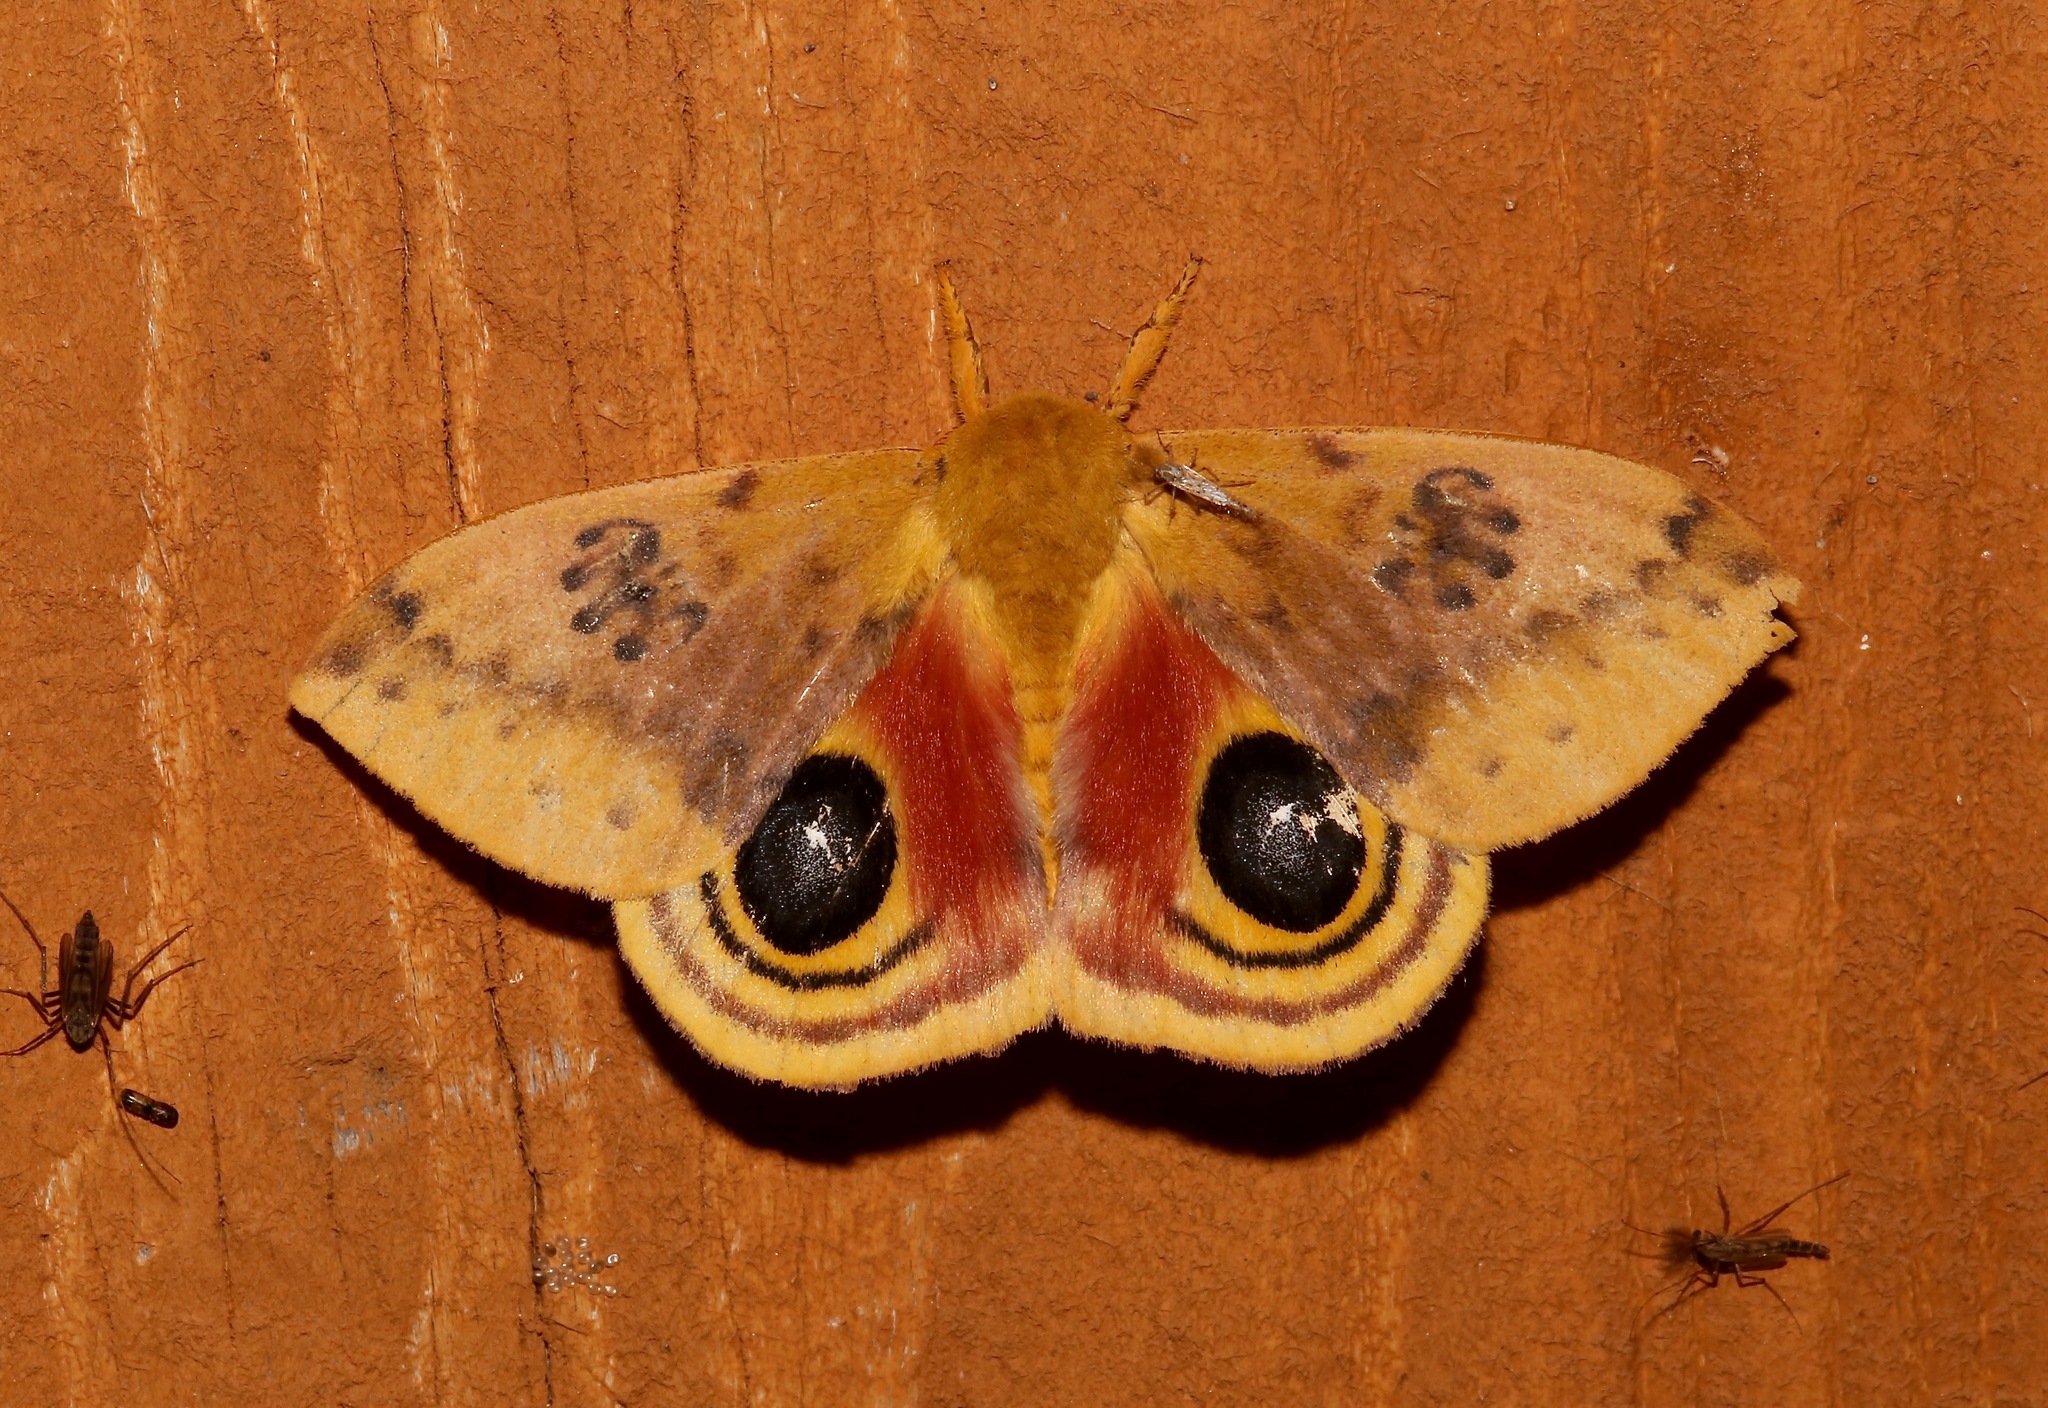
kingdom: Animalia
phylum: Arthropoda
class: Insecta
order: Lepidoptera
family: Saturniidae
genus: Automeris
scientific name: Automeris io
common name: Io moth
